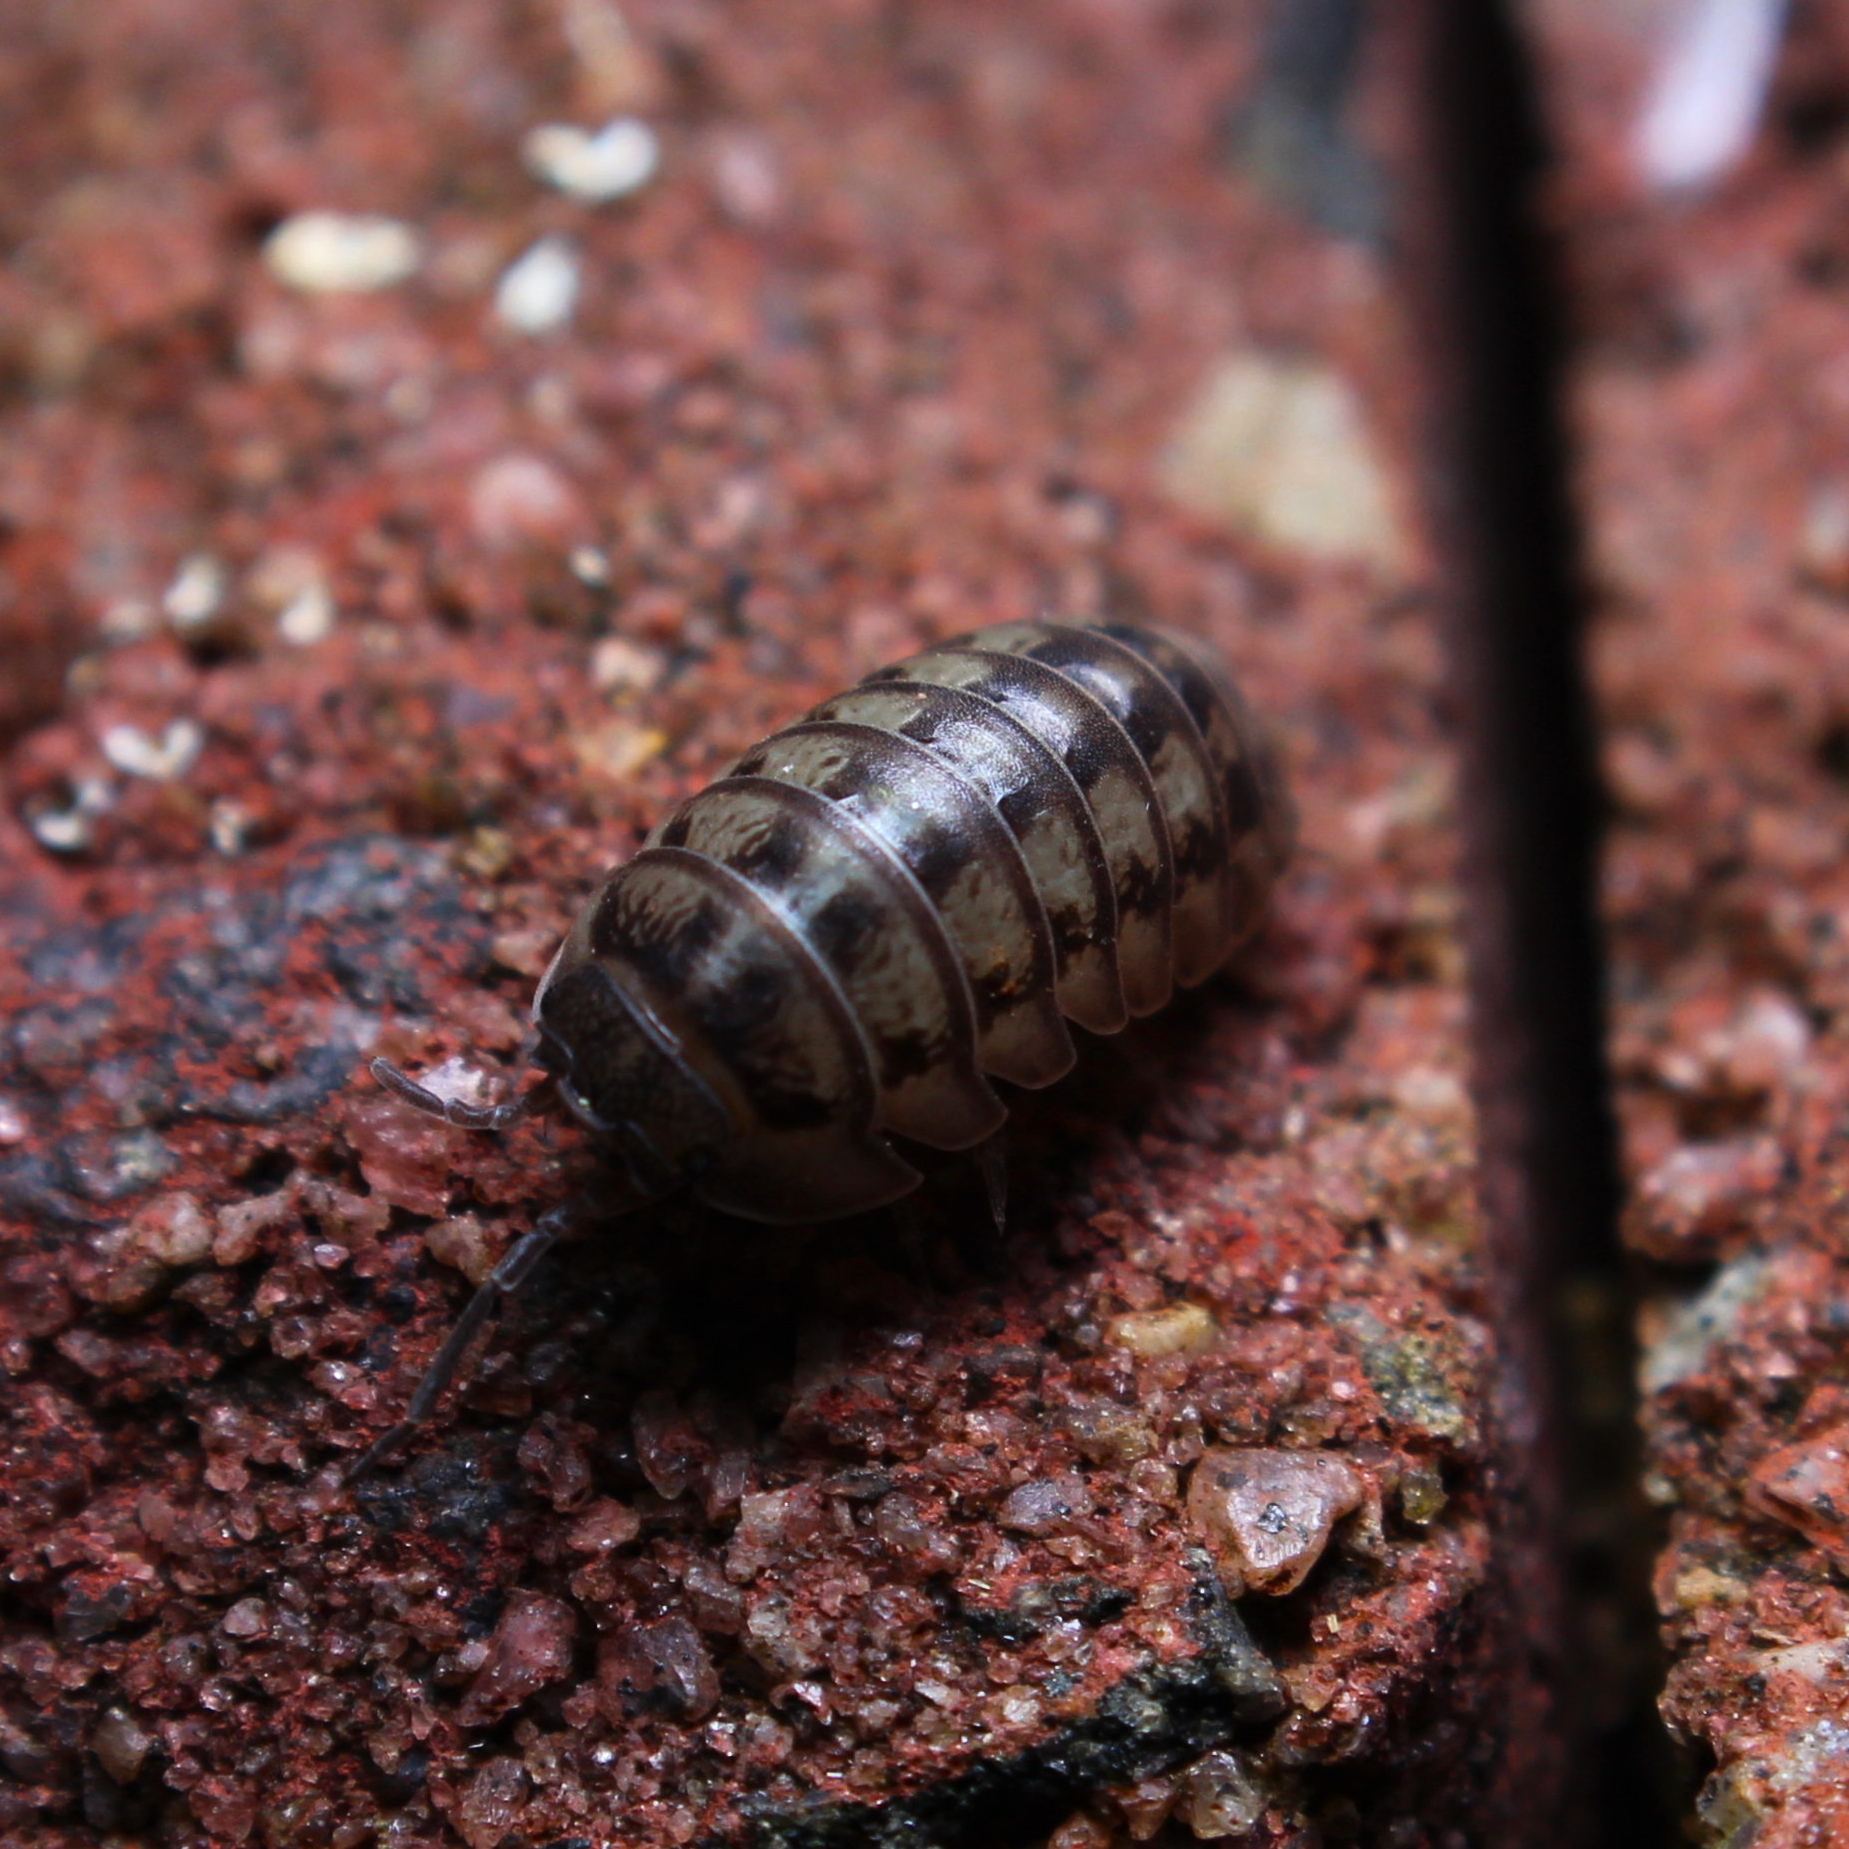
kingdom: Animalia
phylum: Arthropoda
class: Malacostraca
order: Isopoda
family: Armadillidiidae
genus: Armadillidium
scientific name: Armadillidium nasatum
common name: Isopod
